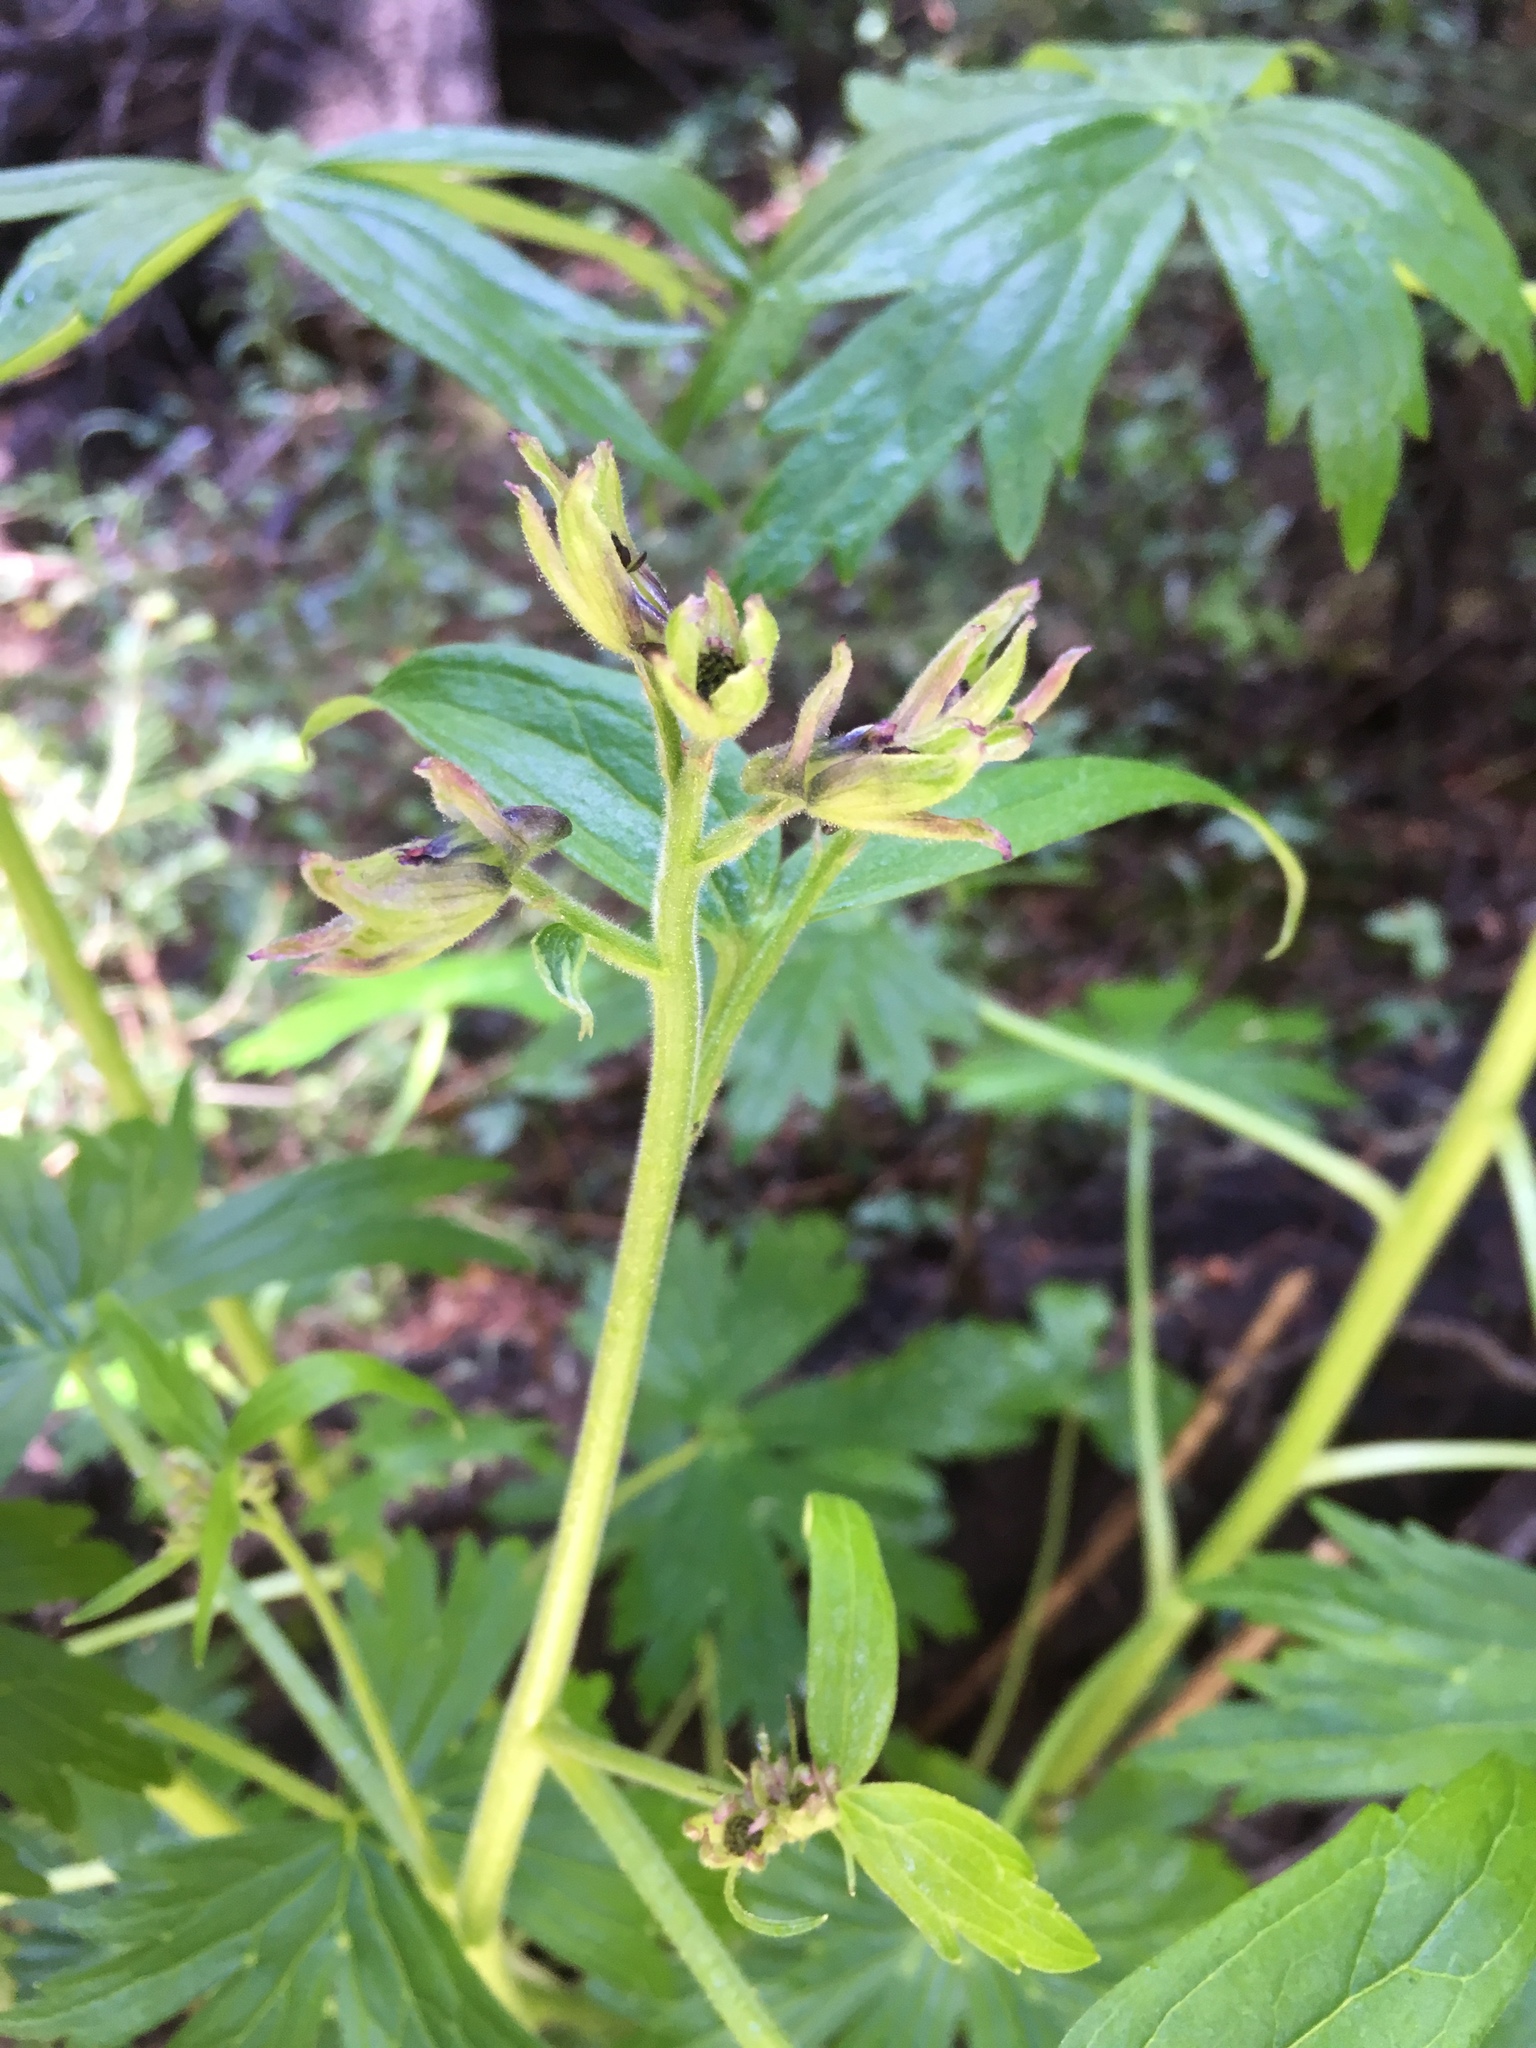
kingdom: Plantae
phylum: Tracheophyta
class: Magnoliopsida
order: Ranunculales
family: Ranunculaceae
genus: Delphinium
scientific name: Delphinium barbeyi
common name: Subalpine larkspur
